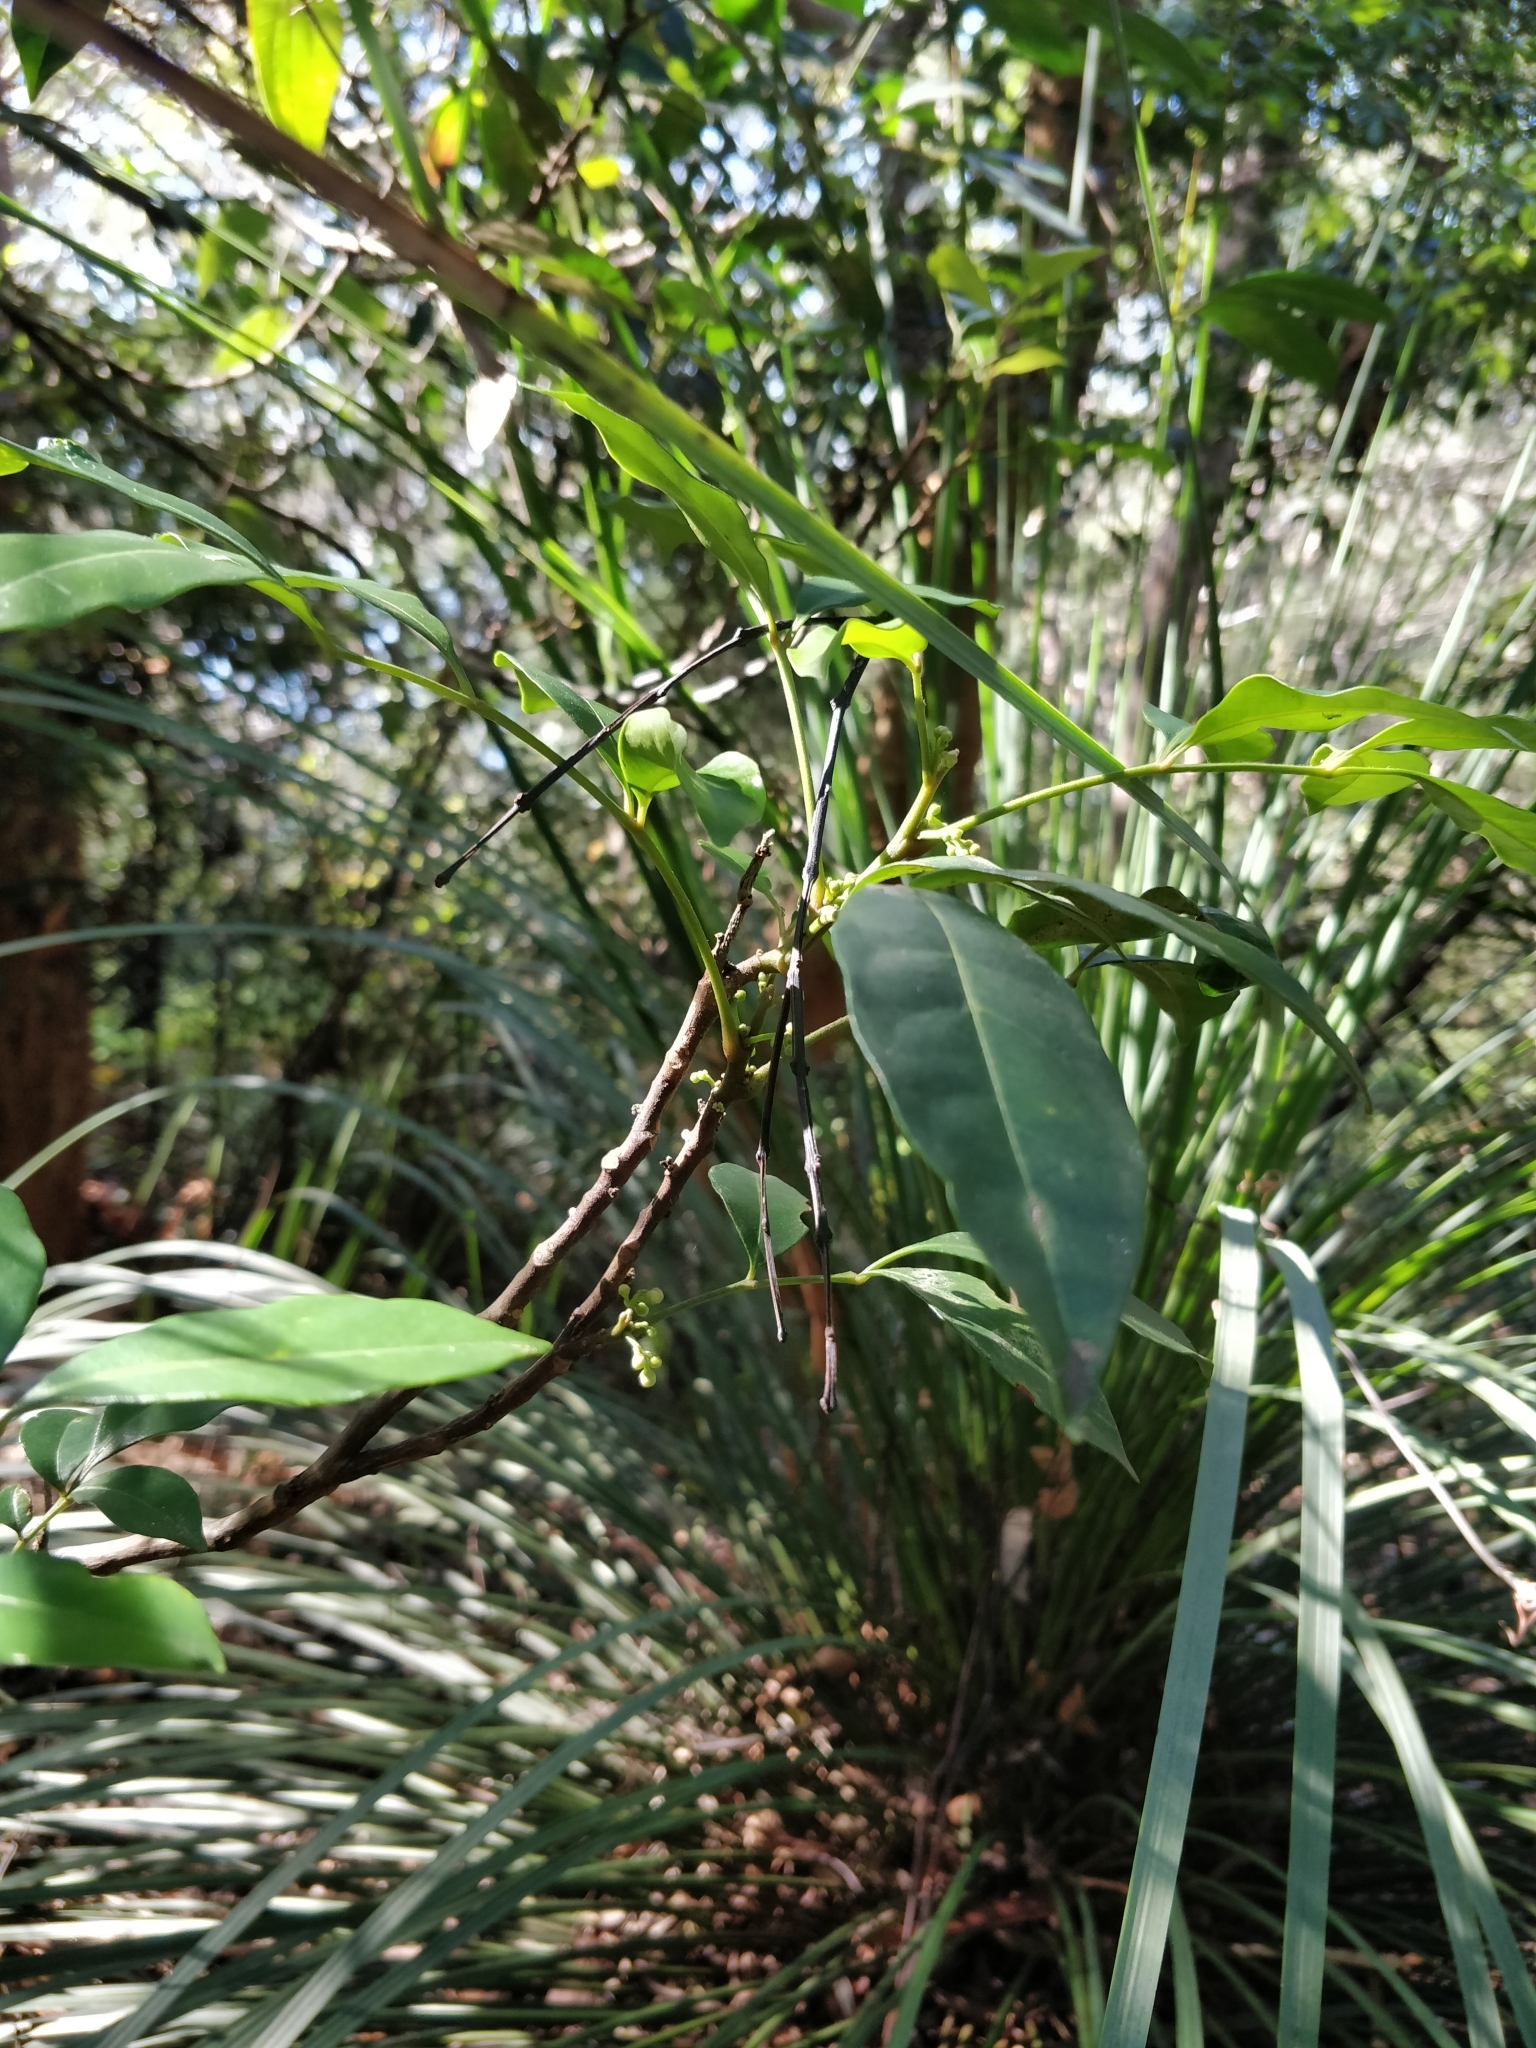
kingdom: Plantae
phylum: Tracheophyta
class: Magnoliopsida
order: Sapindales
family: Meliaceae
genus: Synoum
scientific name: Synoum glandulosum
